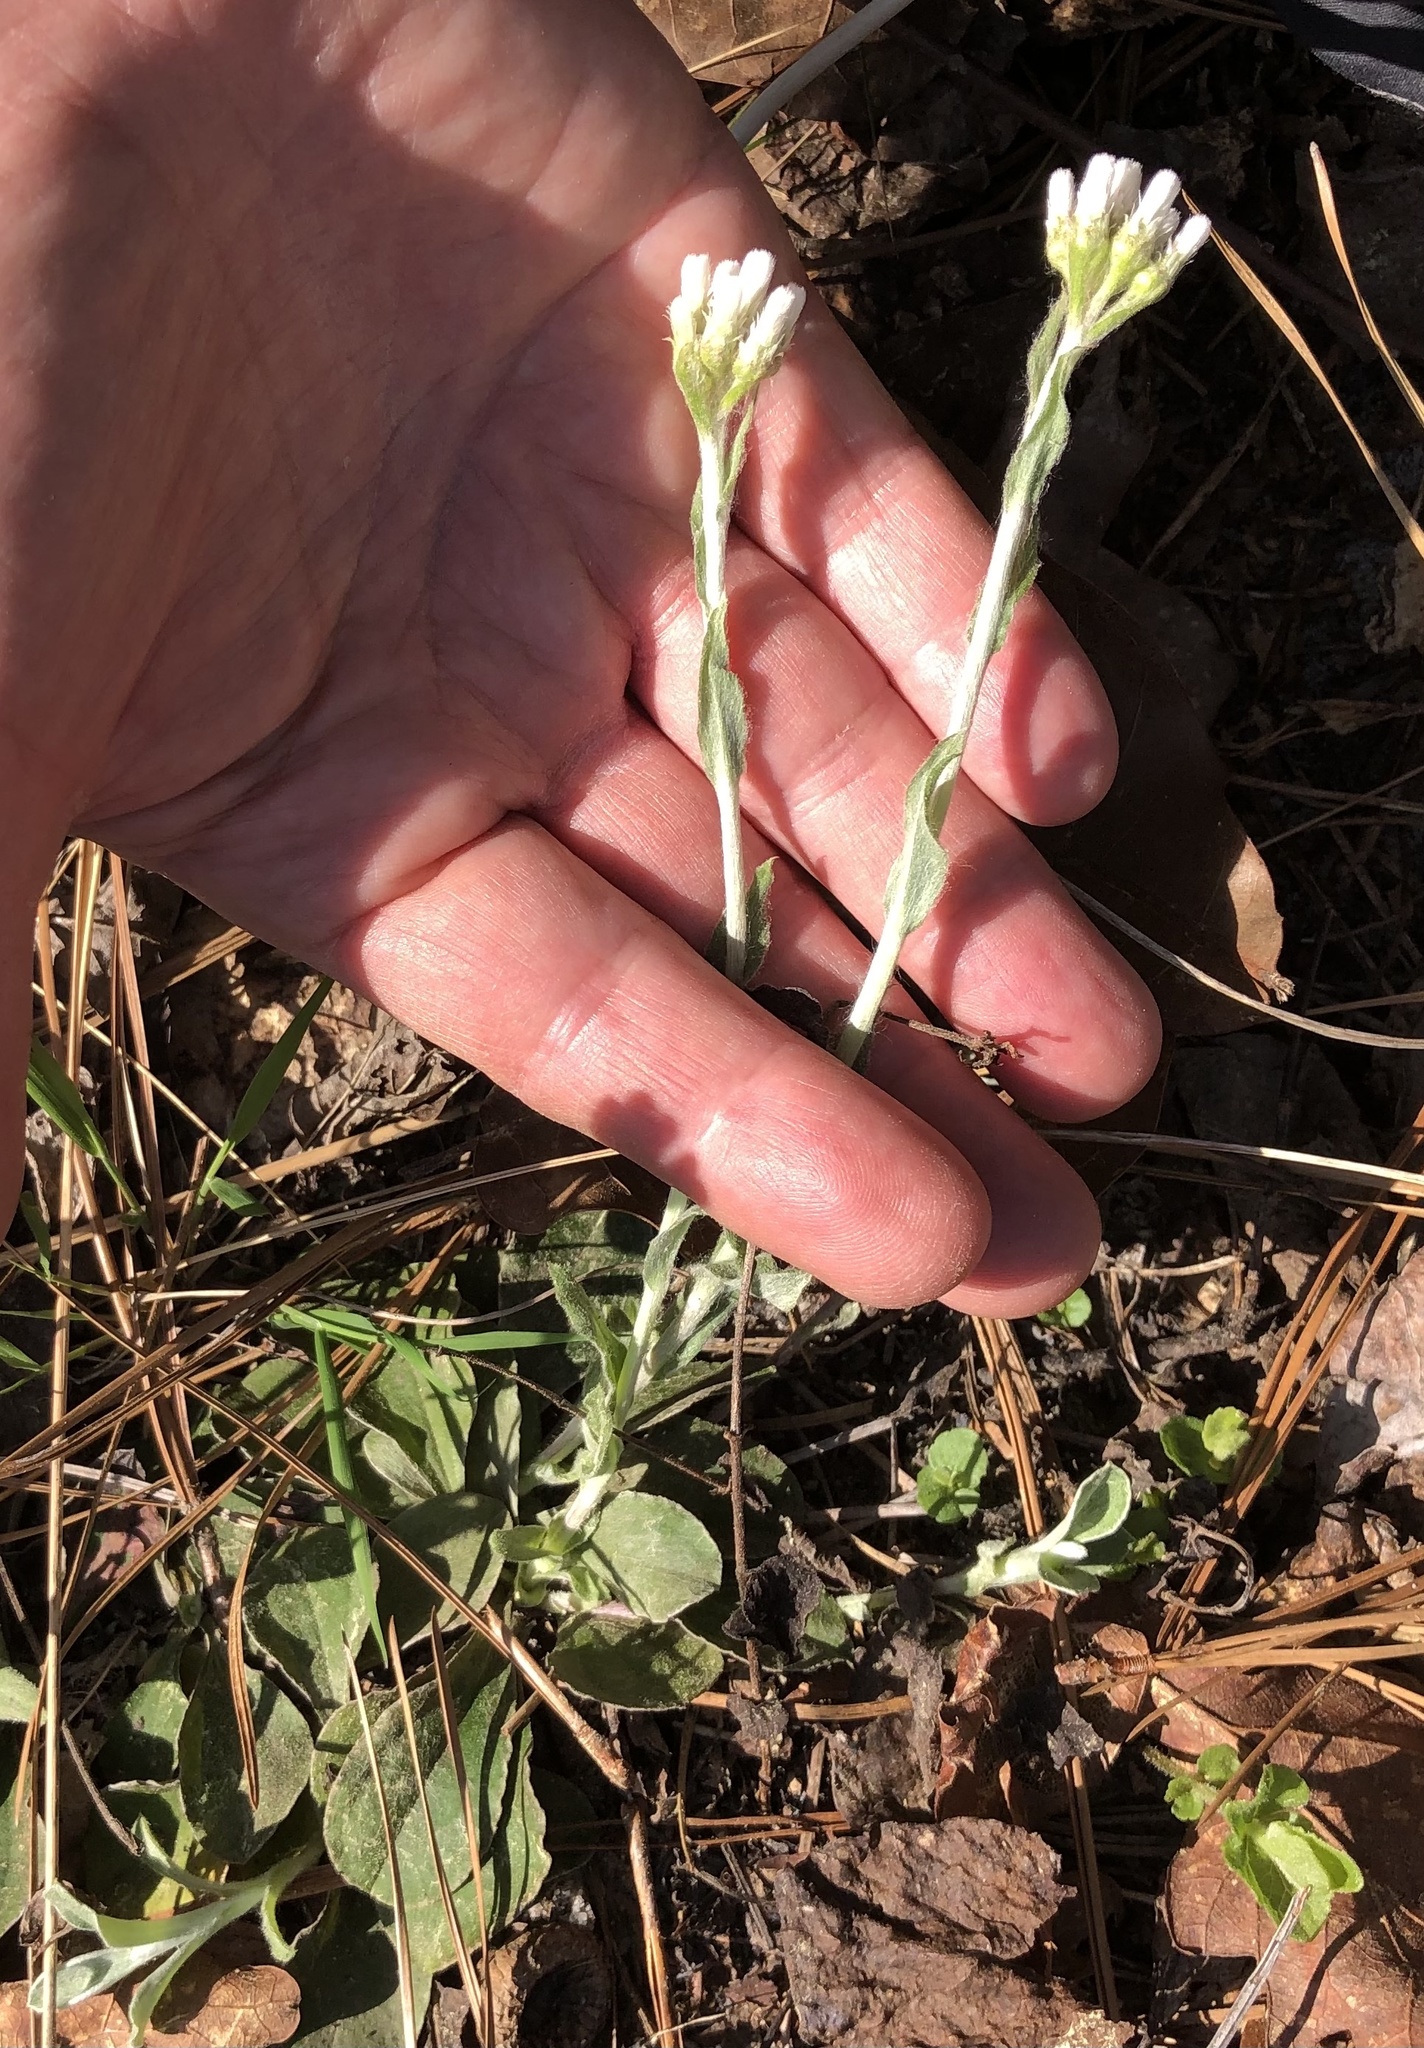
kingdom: Plantae
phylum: Tracheophyta
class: Magnoliopsida
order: Asterales
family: Asteraceae
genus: Antennaria
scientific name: Antennaria plantaginifolia
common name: Plantain-leaved pussytoes
